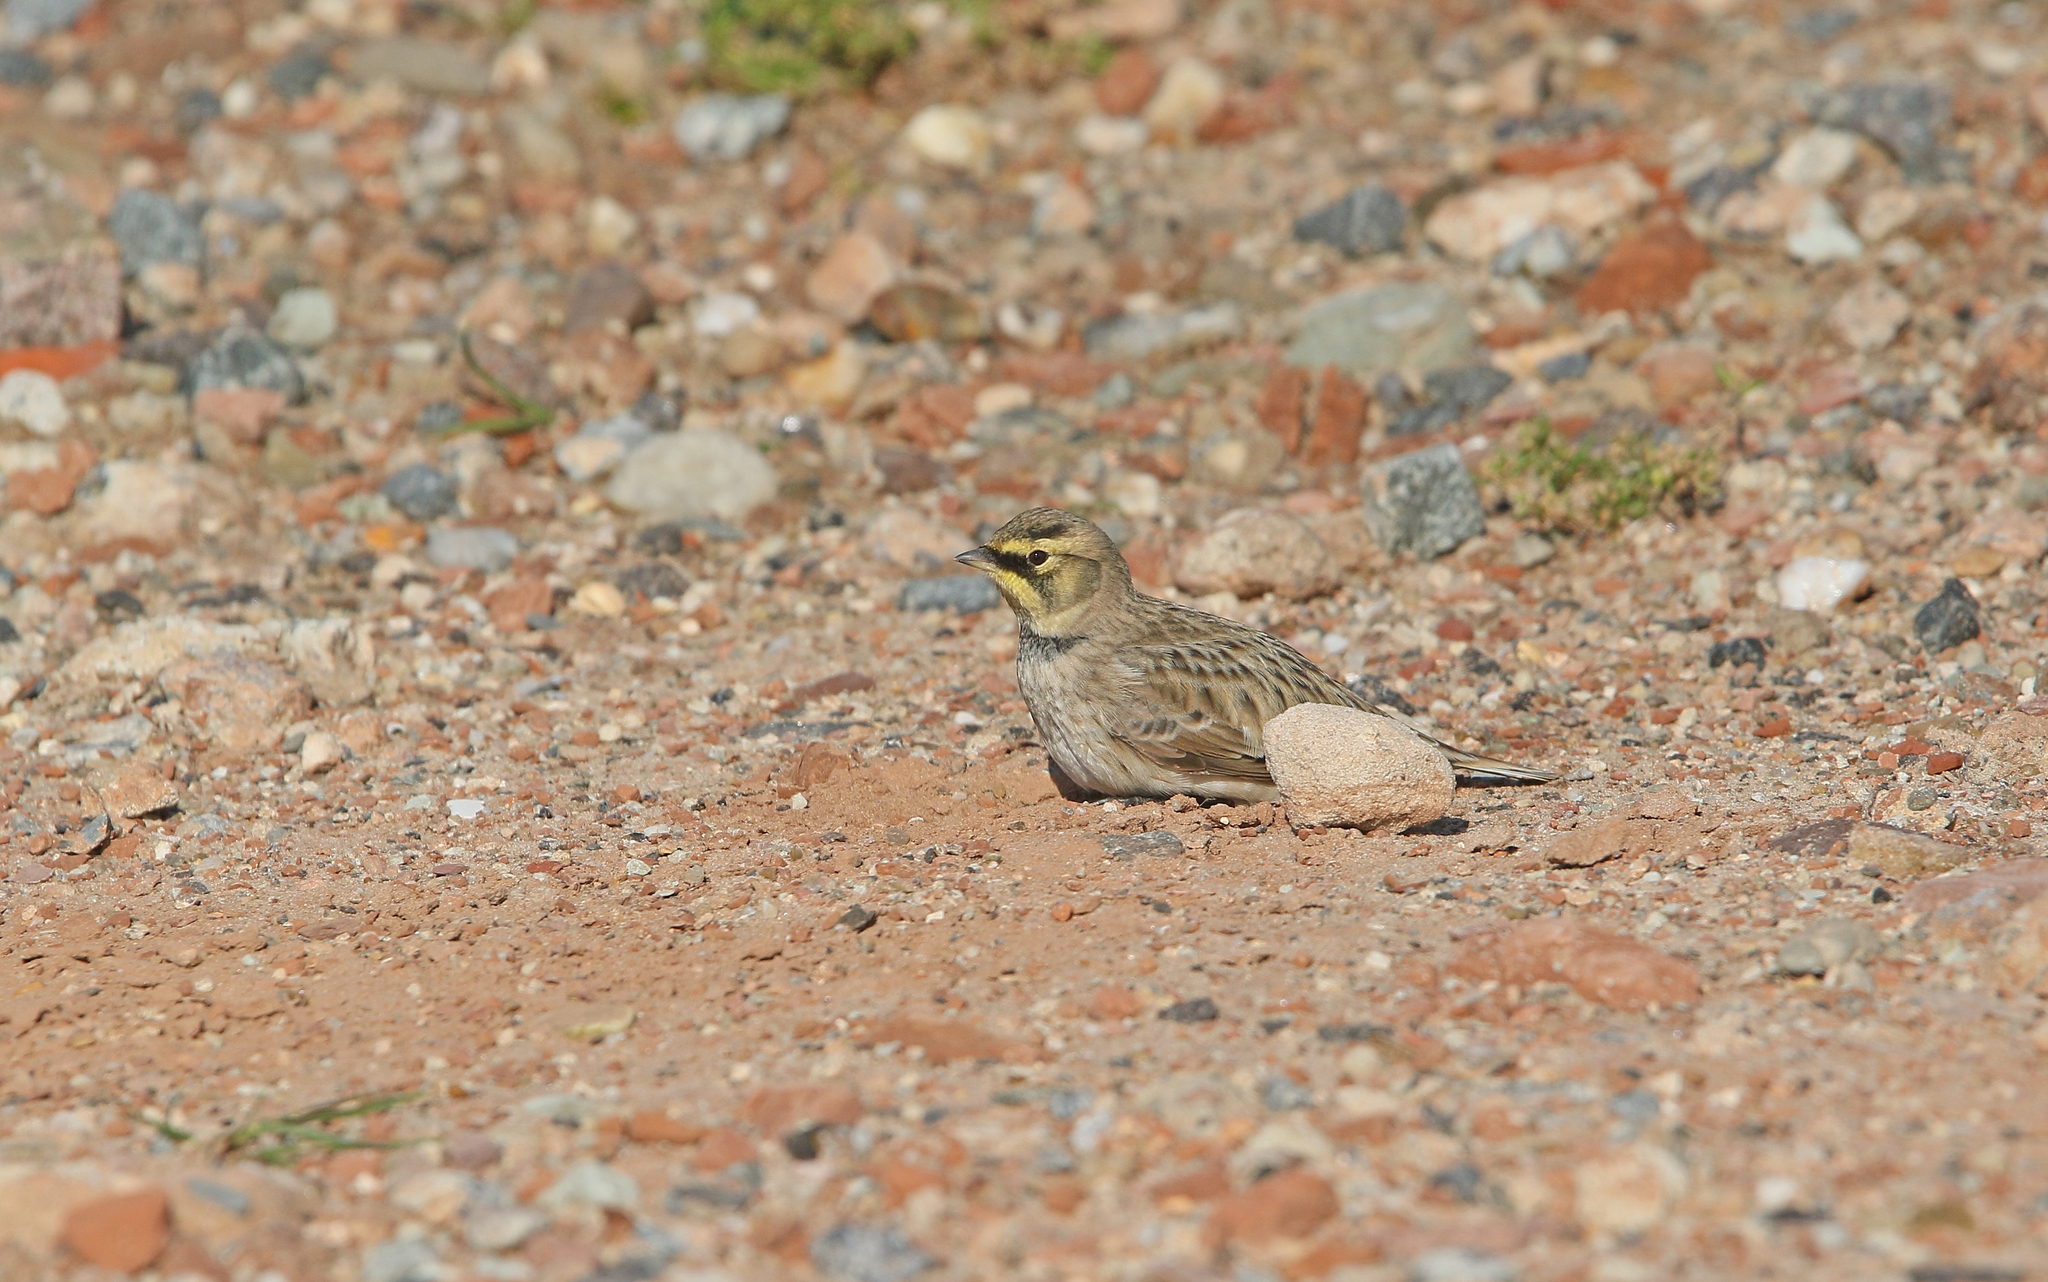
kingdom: Animalia
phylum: Chordata
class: Aves
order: Passeriformes
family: Alaudidae
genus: Eremophila
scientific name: Eremophila alpestris
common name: Horned lark
